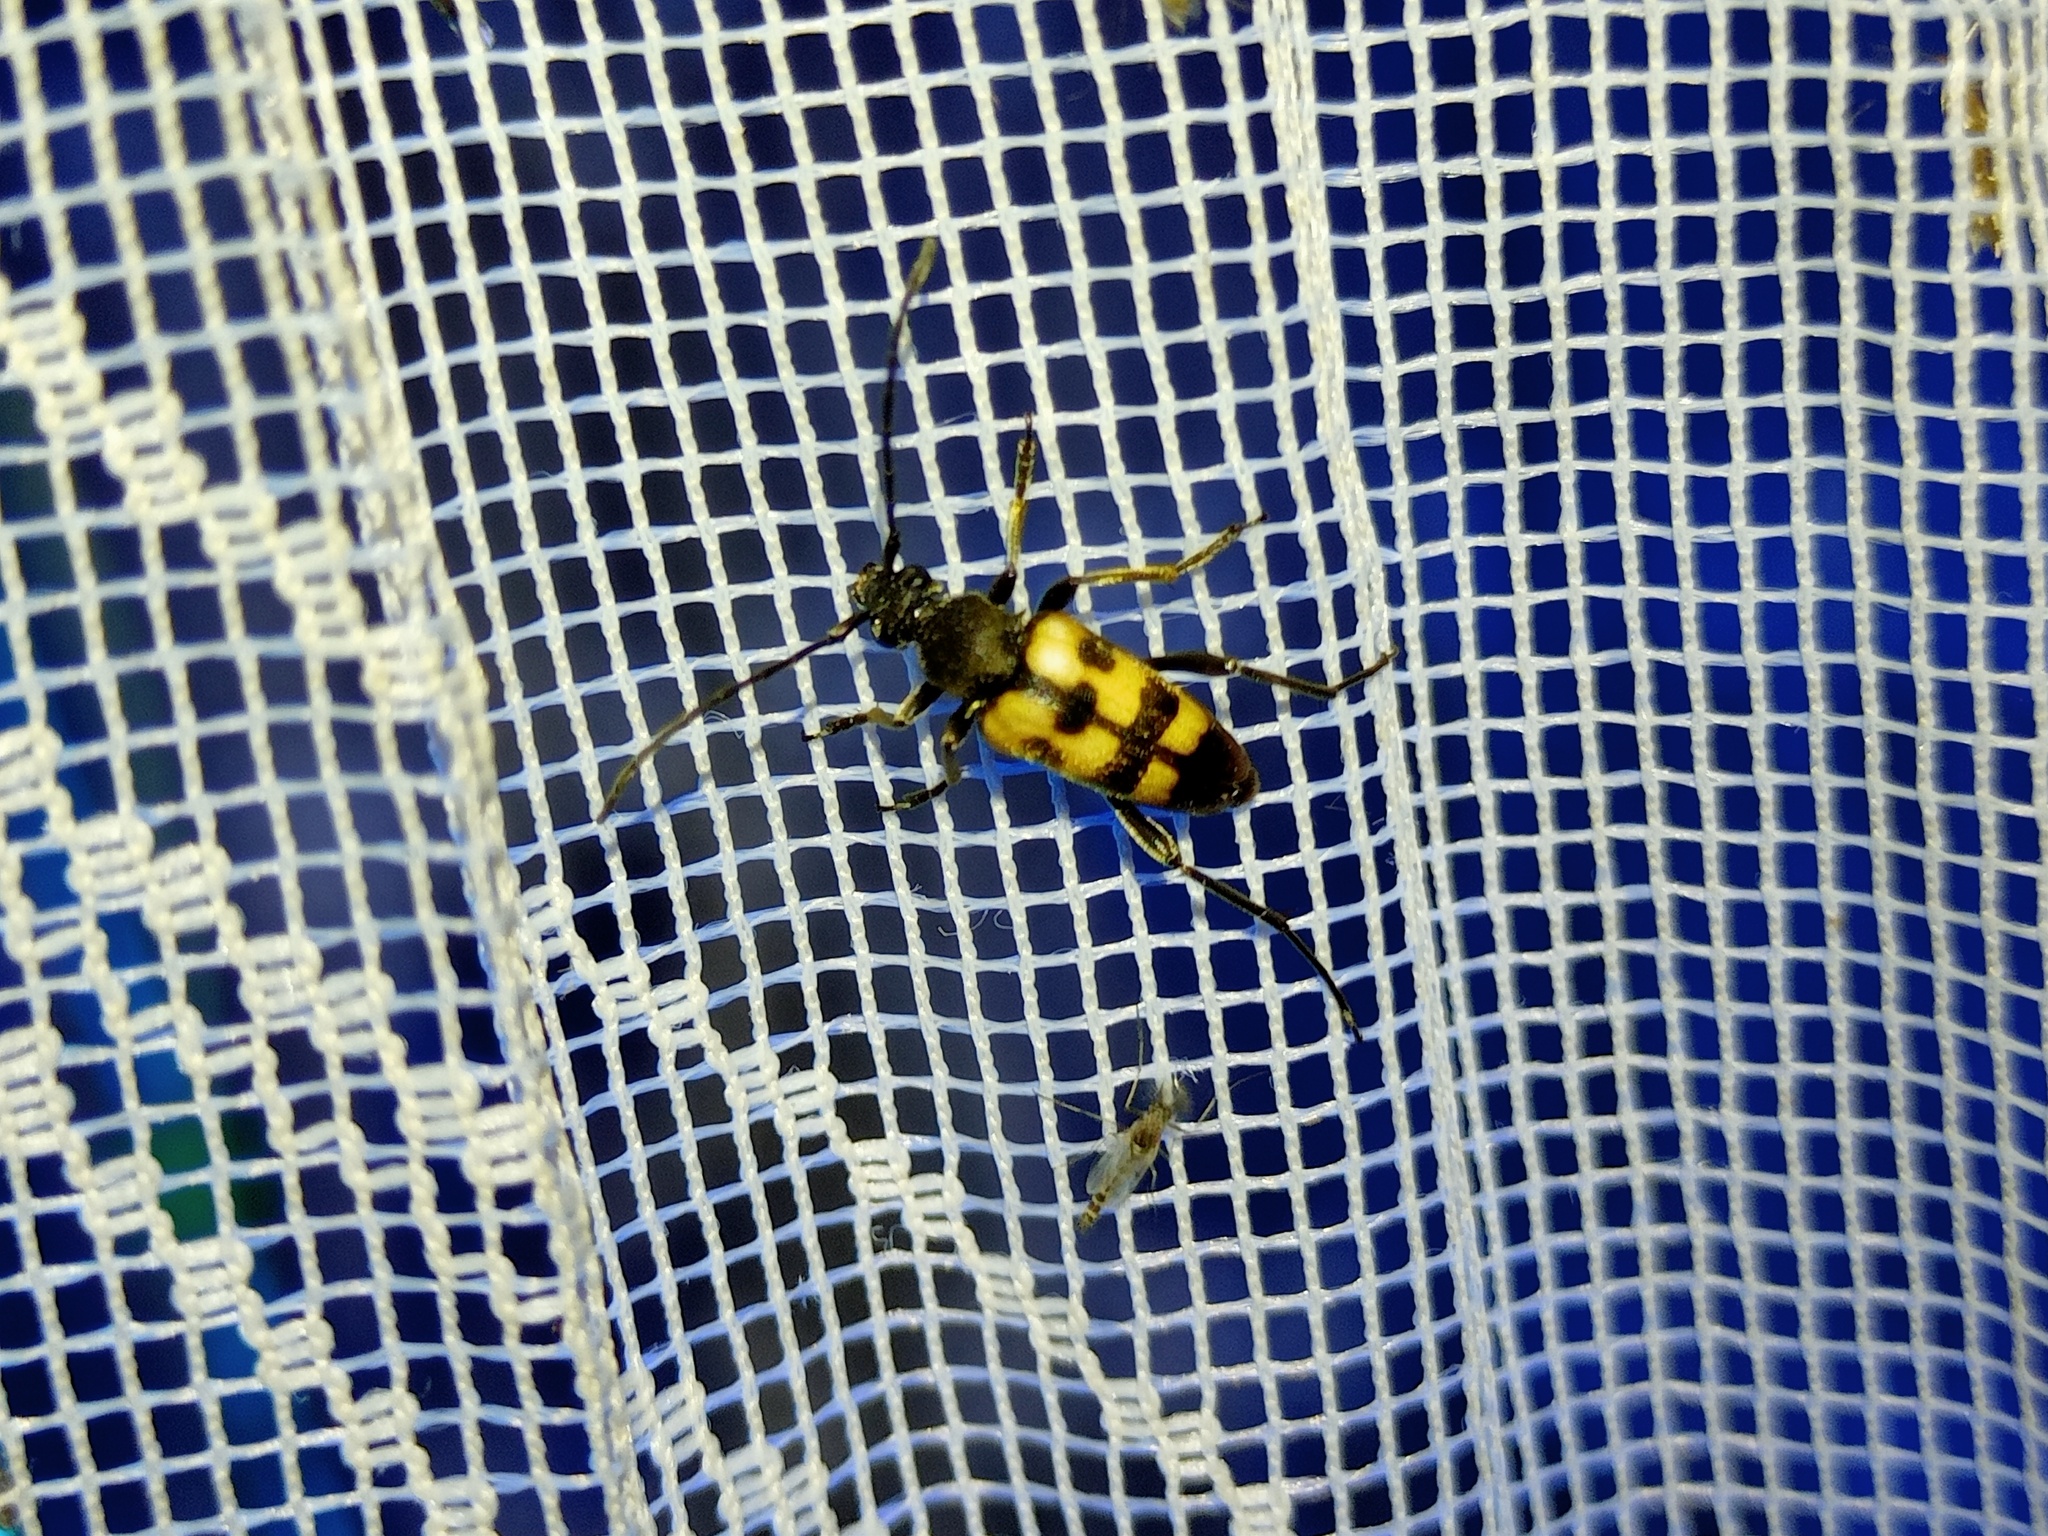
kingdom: Animalia
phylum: Arthropoda
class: Insecta
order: Coleoptera
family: Cerambycidae
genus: Pachytodes
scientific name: Pachytodes
